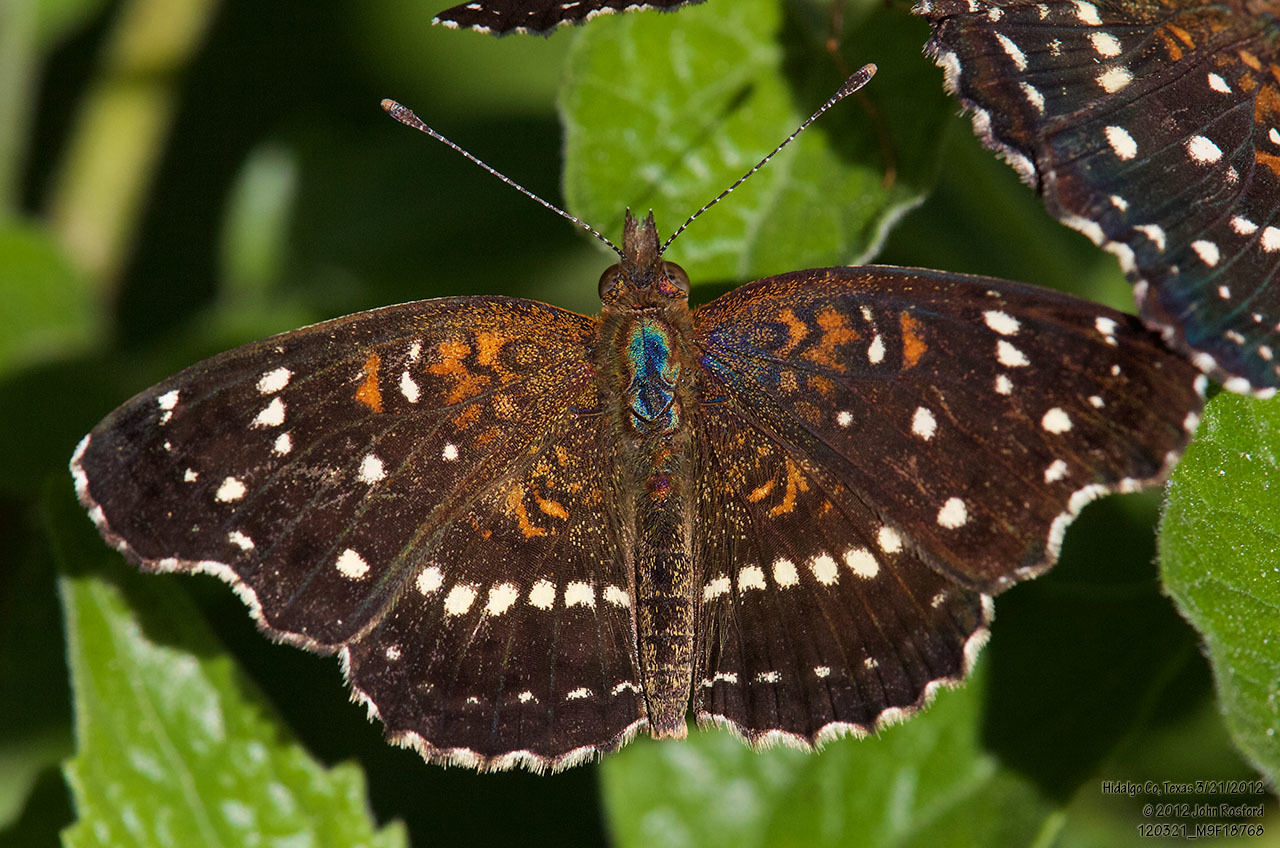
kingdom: Animalia
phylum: Arthropoda
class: Insecta
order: Lepidoptera
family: Nymphalidae
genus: Anthanassa
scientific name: Anthanassa texana
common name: Texan crescent
